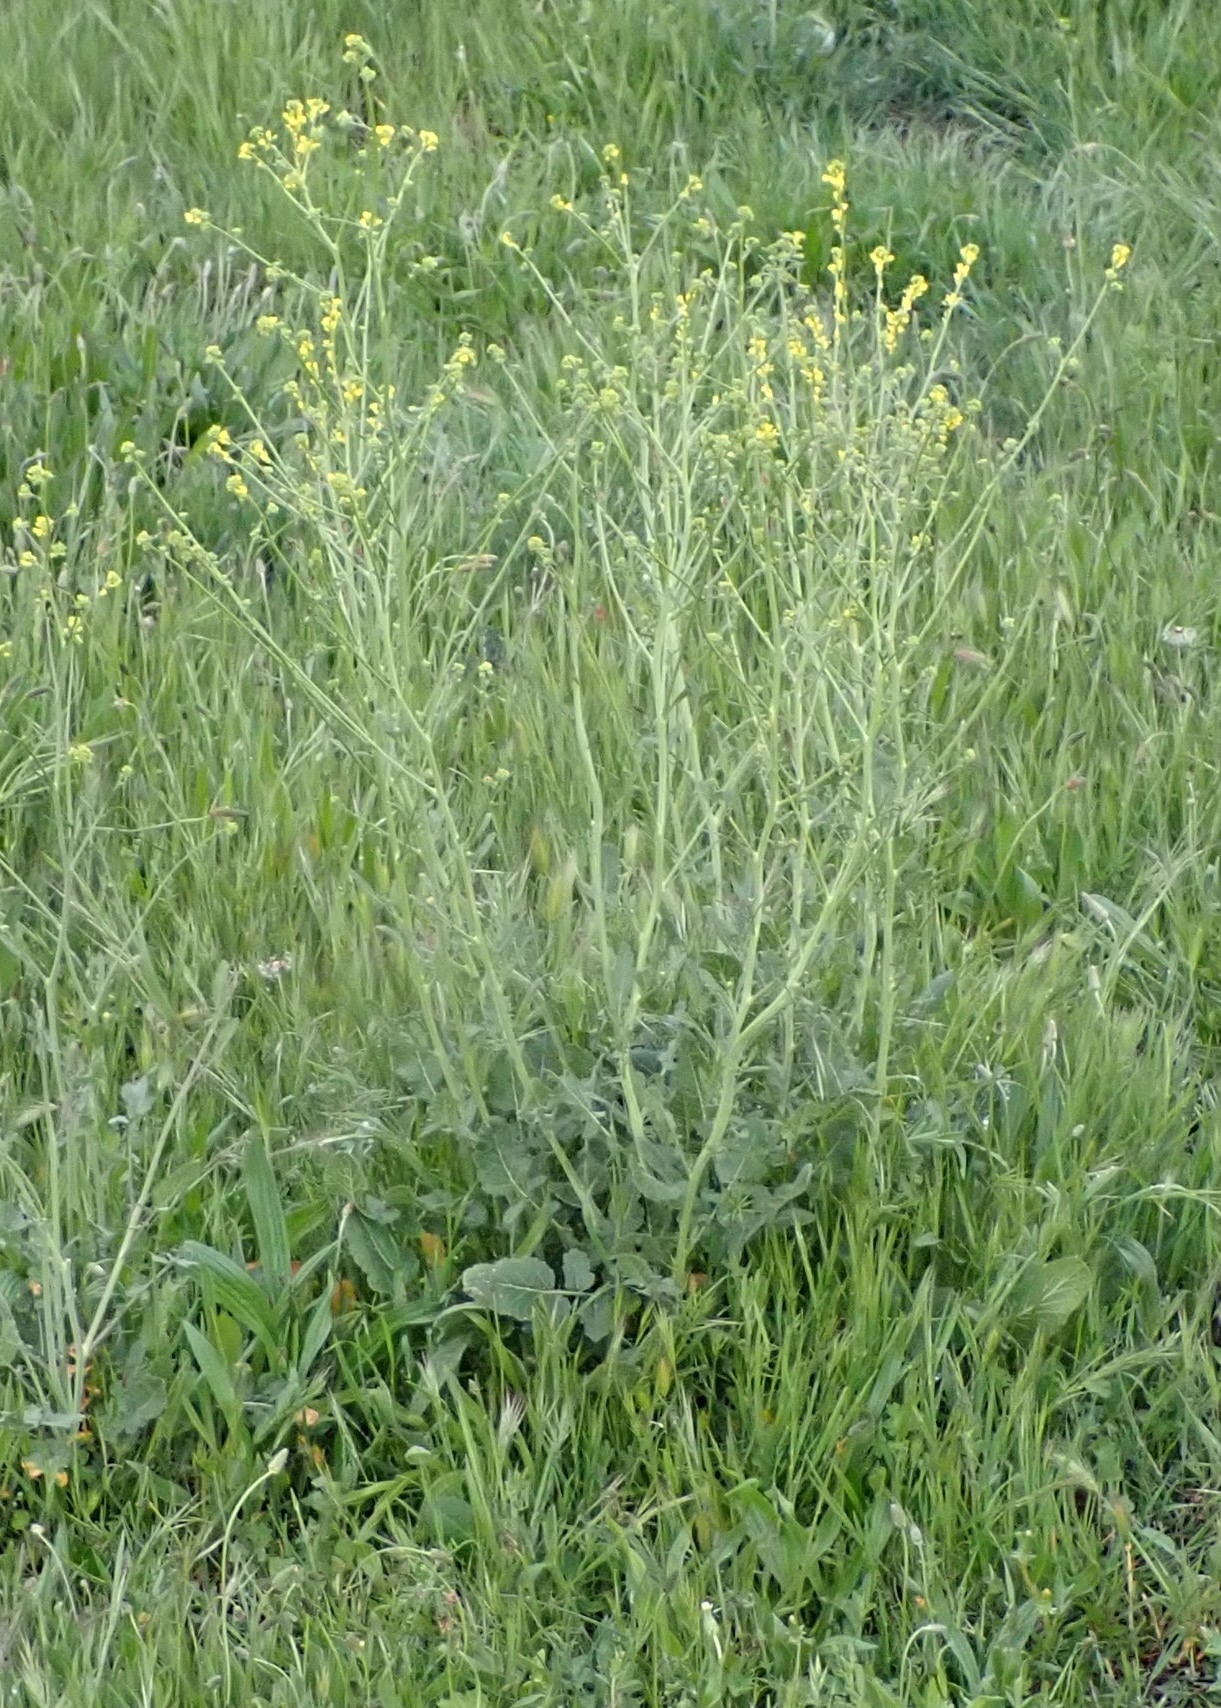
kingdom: Plantae
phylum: Tracheophyta
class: Magnoliopsida
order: Brassicales
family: Brassicaceae
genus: Hirschfeldia
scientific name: Hirschfeldia incana
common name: Hoary mustard
